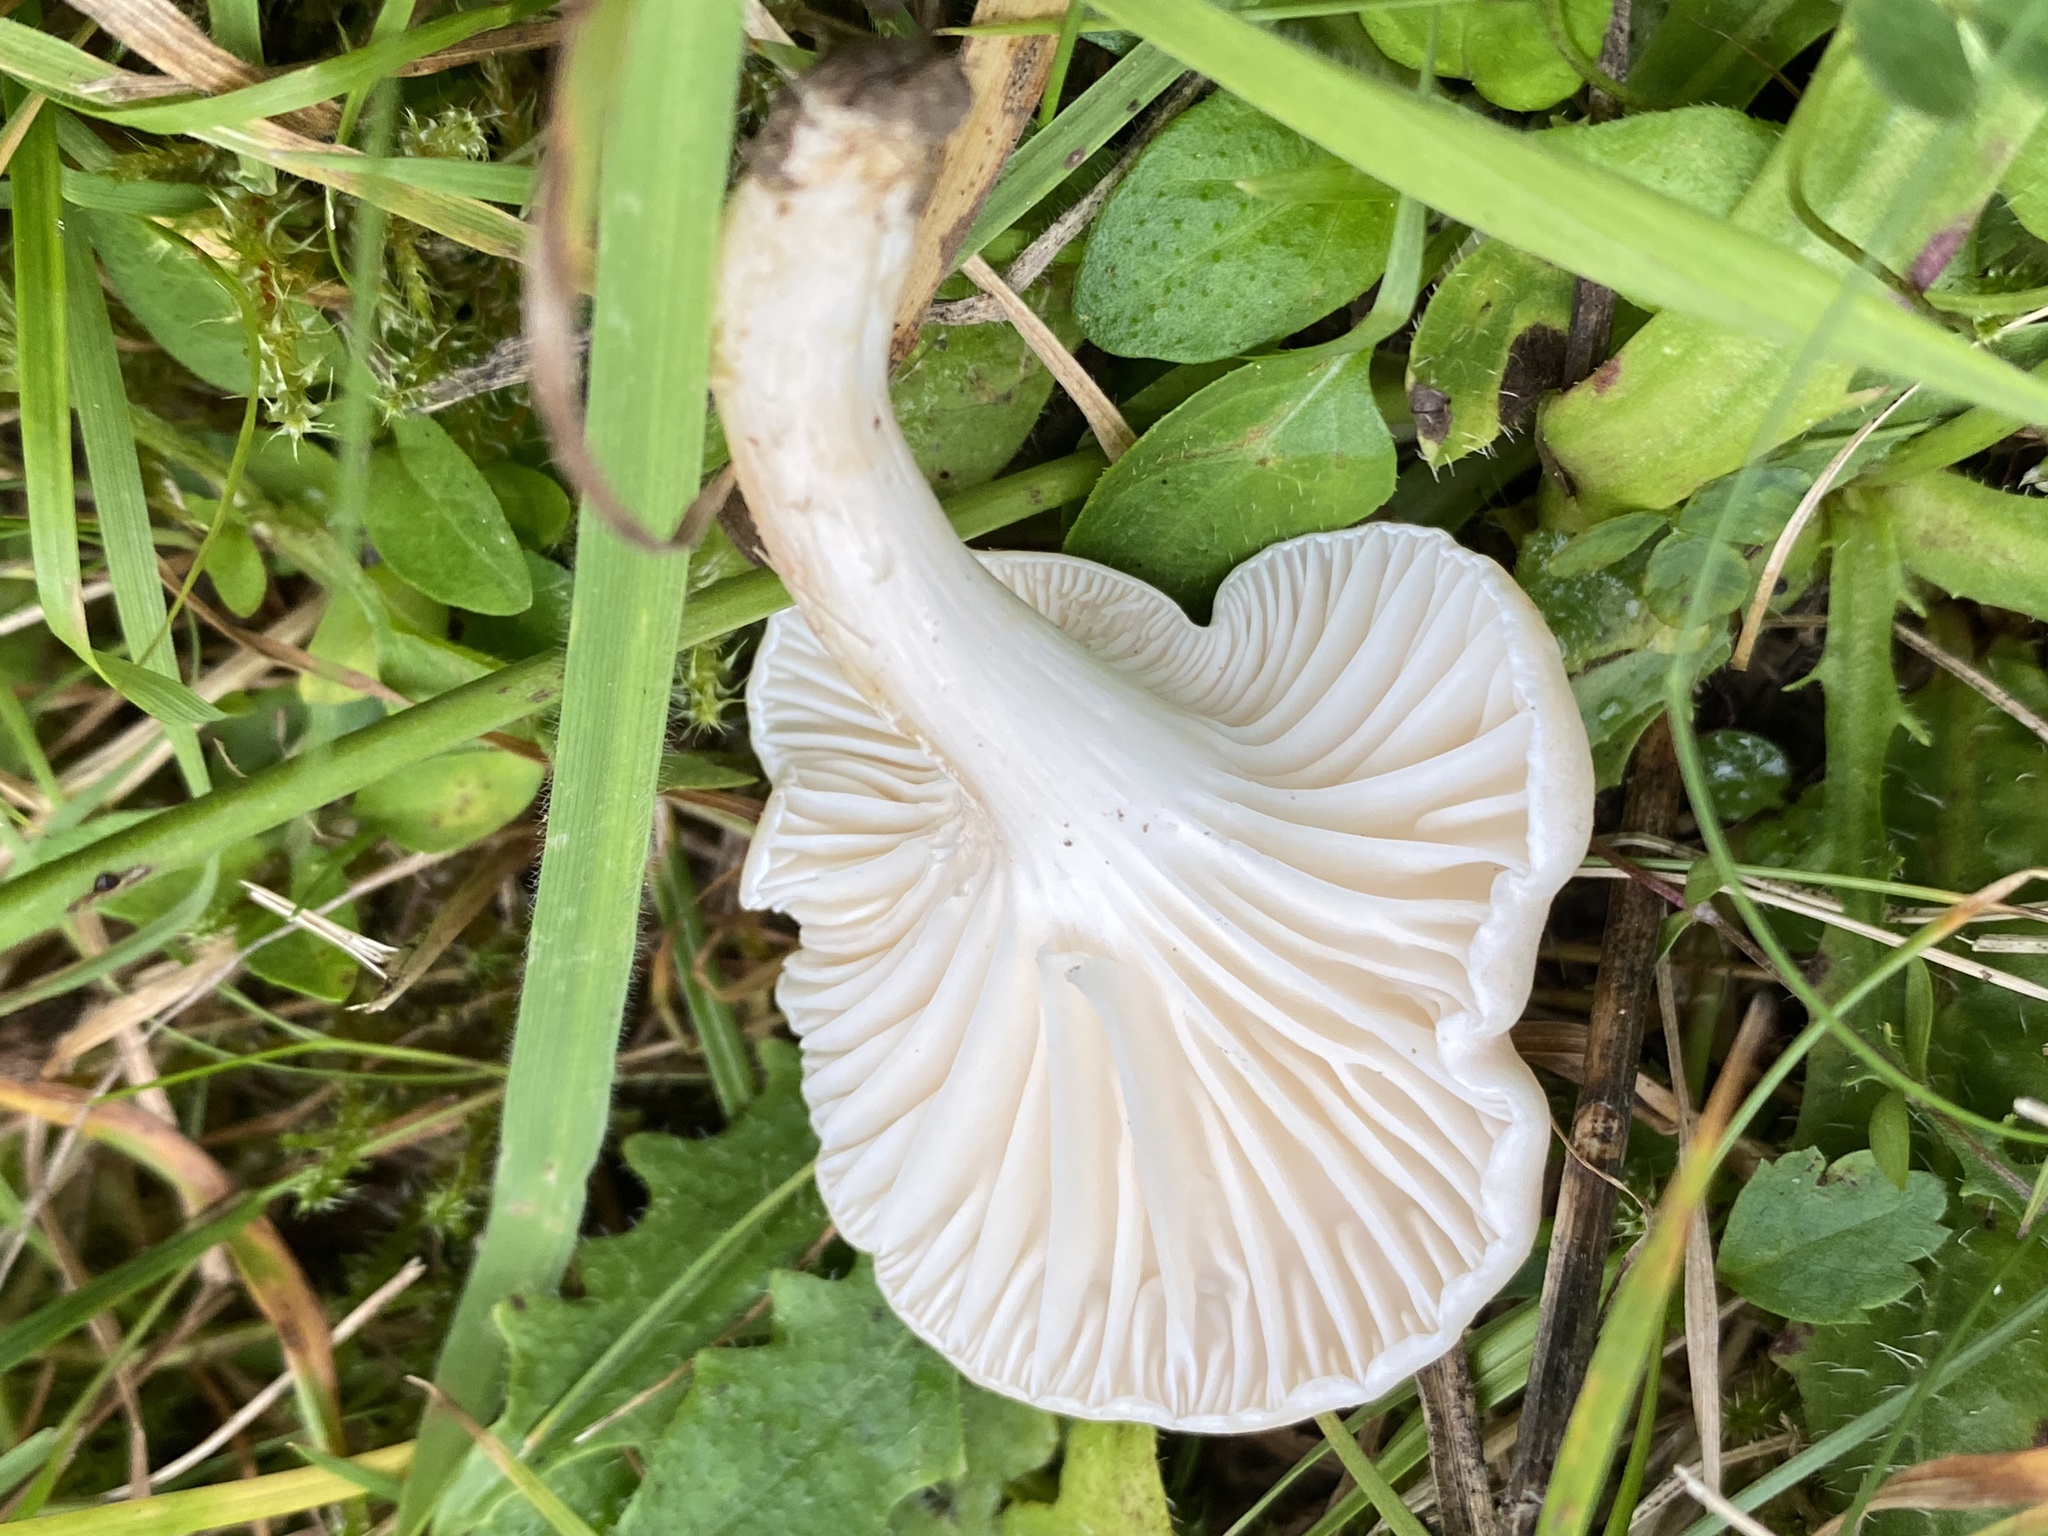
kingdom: Fungi
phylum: Basidiomycota
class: Agaricomycetes
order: Agaricales
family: Hygrophoraceae
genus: Cuphophyllus
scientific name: Cuphophyllus pratensis
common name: Meadow waxcap
